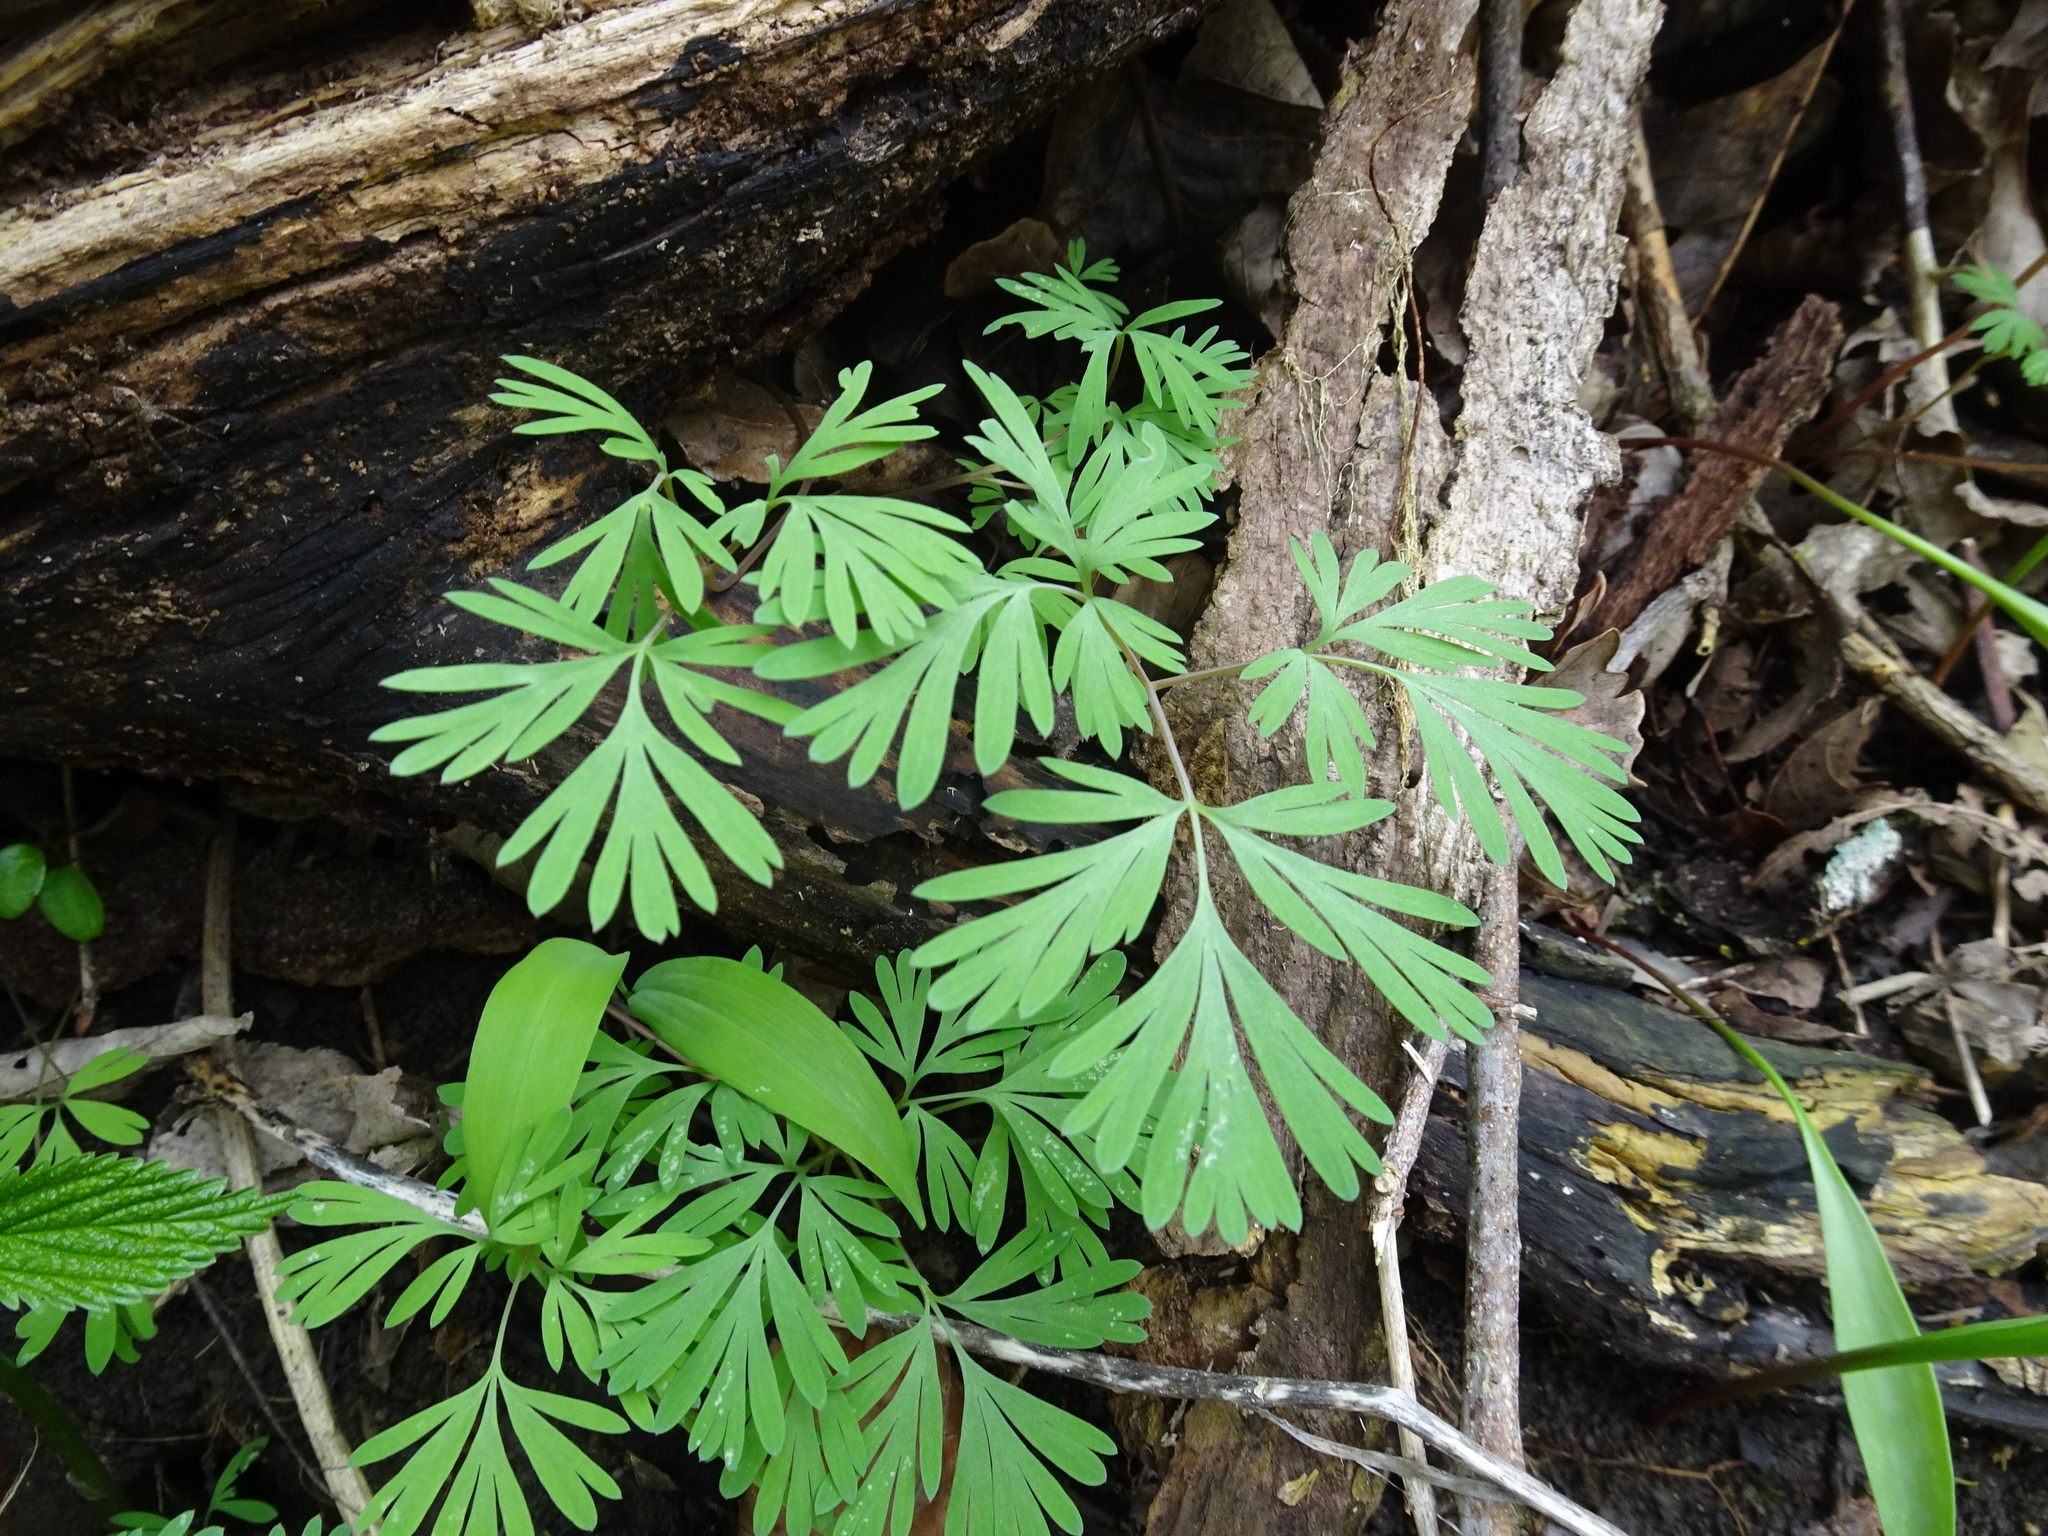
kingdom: Plantae
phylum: Tracheophyta
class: Magnoliopsida
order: Ranunculales
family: Papaveraceae
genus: Dicentra
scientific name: Dicentra cucullaria
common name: Dutchman's breeches
